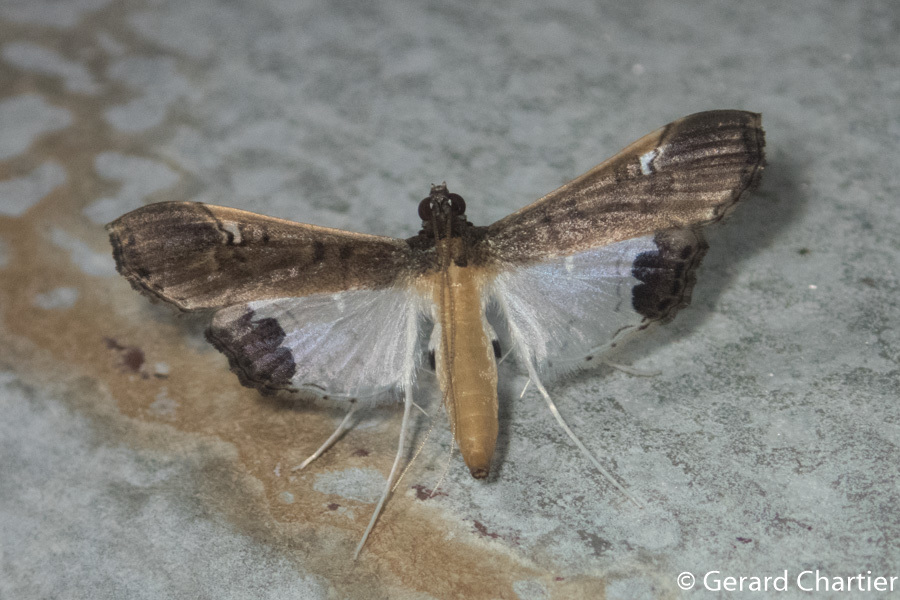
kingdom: Animalia
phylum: Arthropoda
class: Insecta
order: Lepidoptera
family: Crambidae
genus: Maruca
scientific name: Maruca amboinalis
